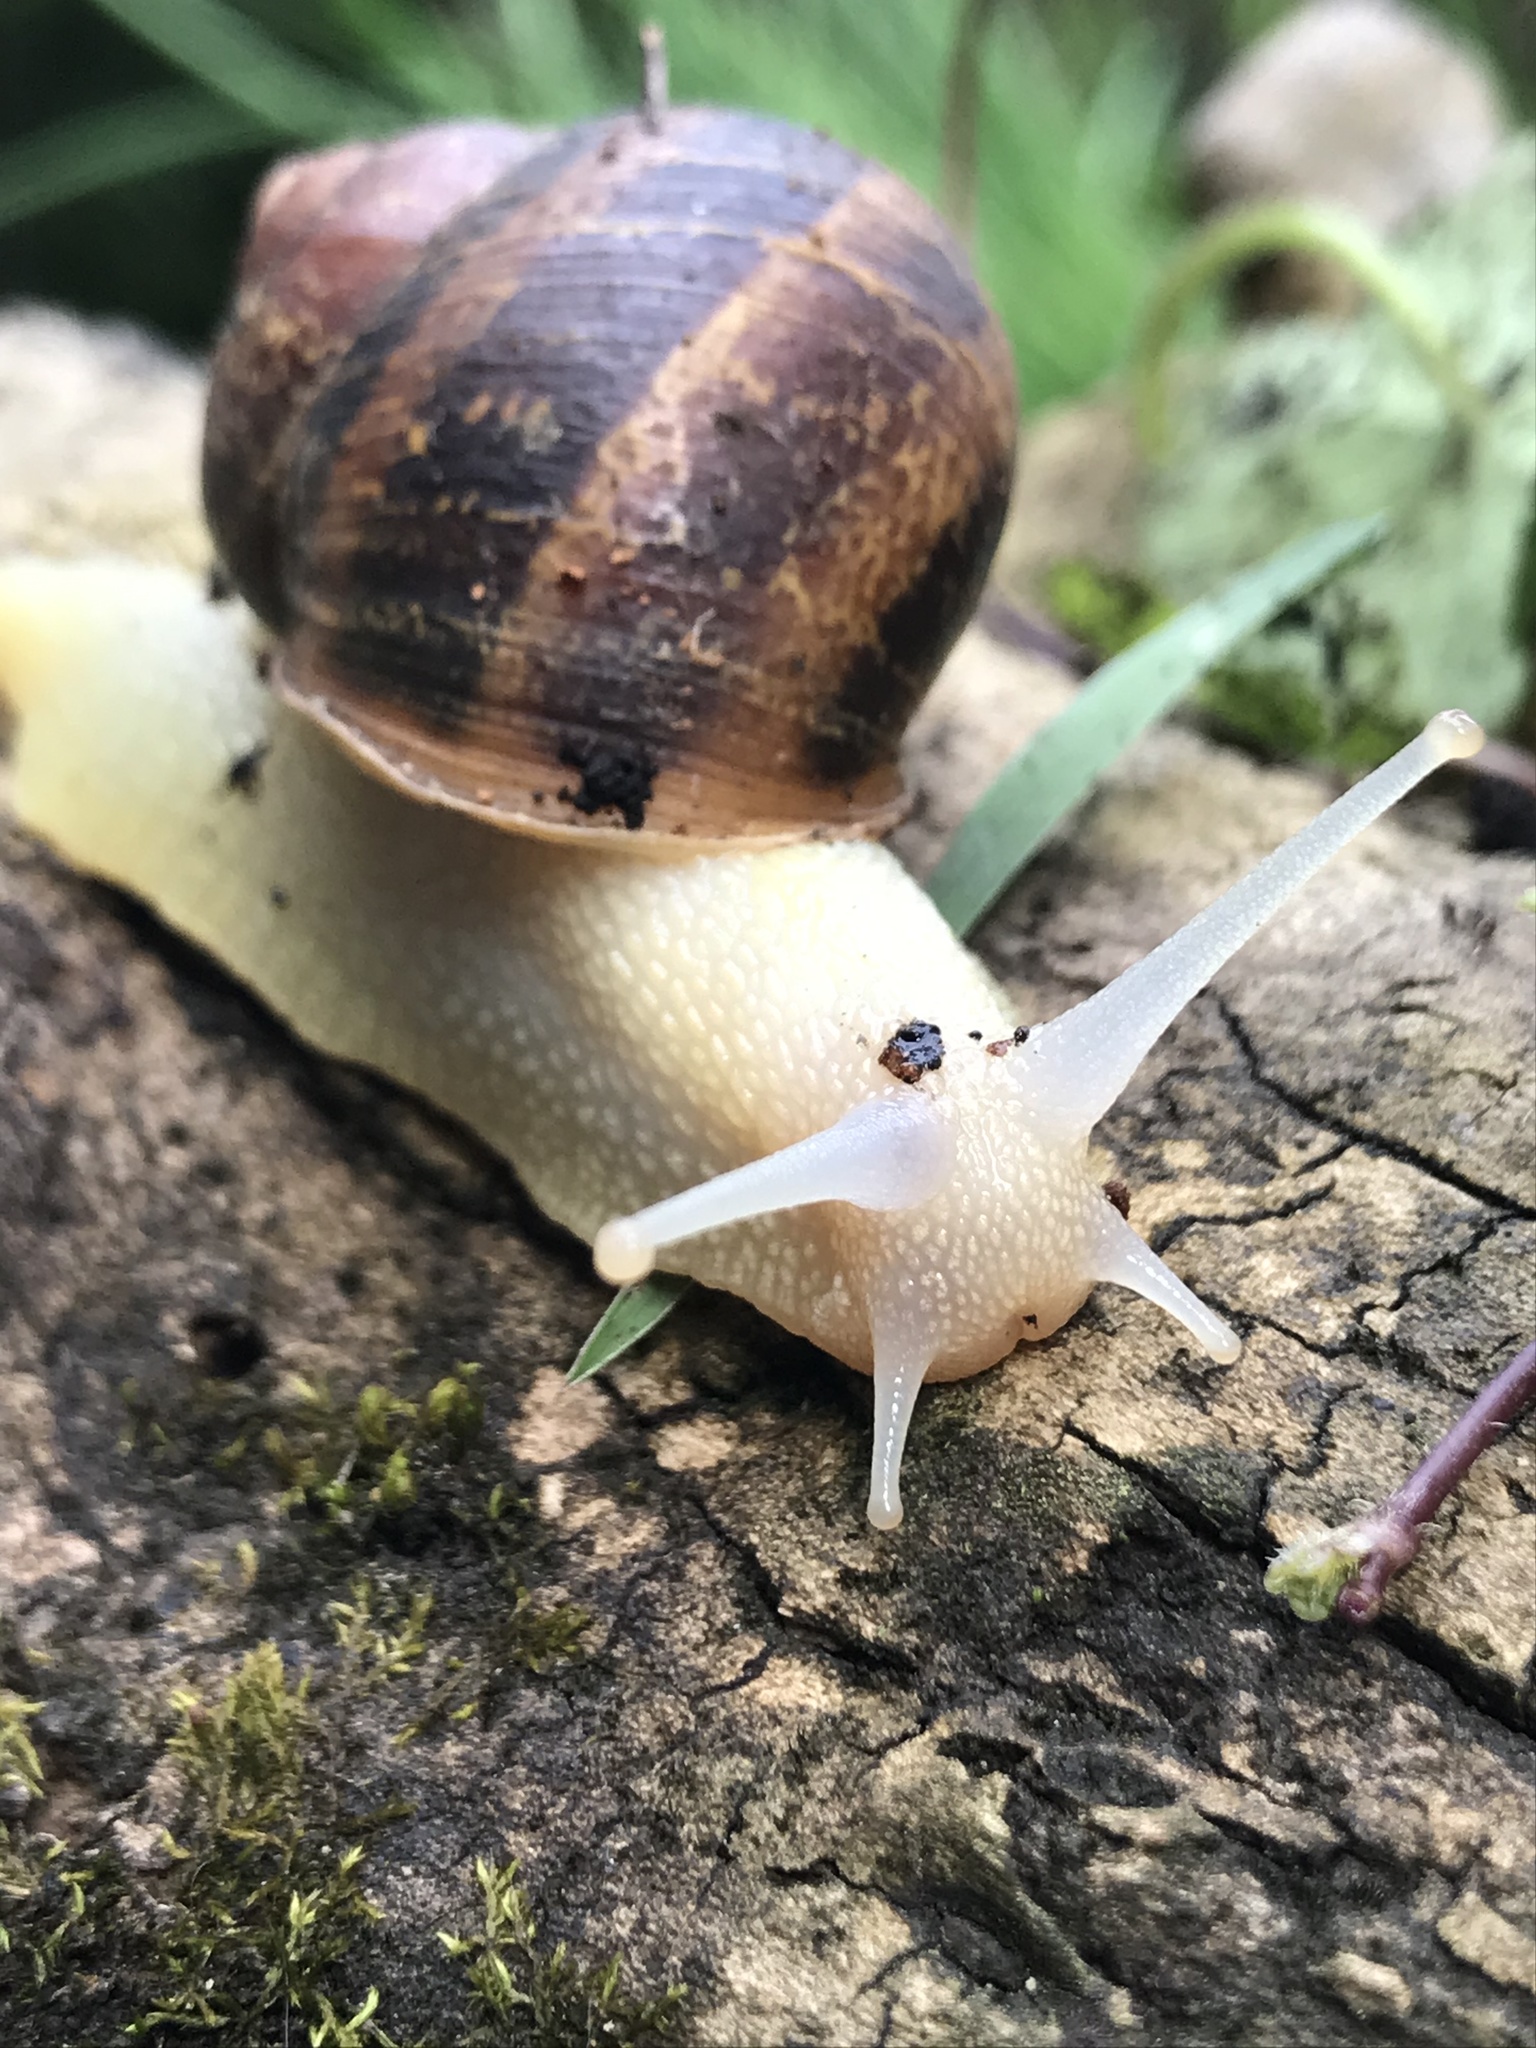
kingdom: Animalia
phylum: Mollusca
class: Gastropoda
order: Stylommatophora
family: Helicidae
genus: Cornu
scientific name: Cornu aspersum
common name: Brown garden snail
